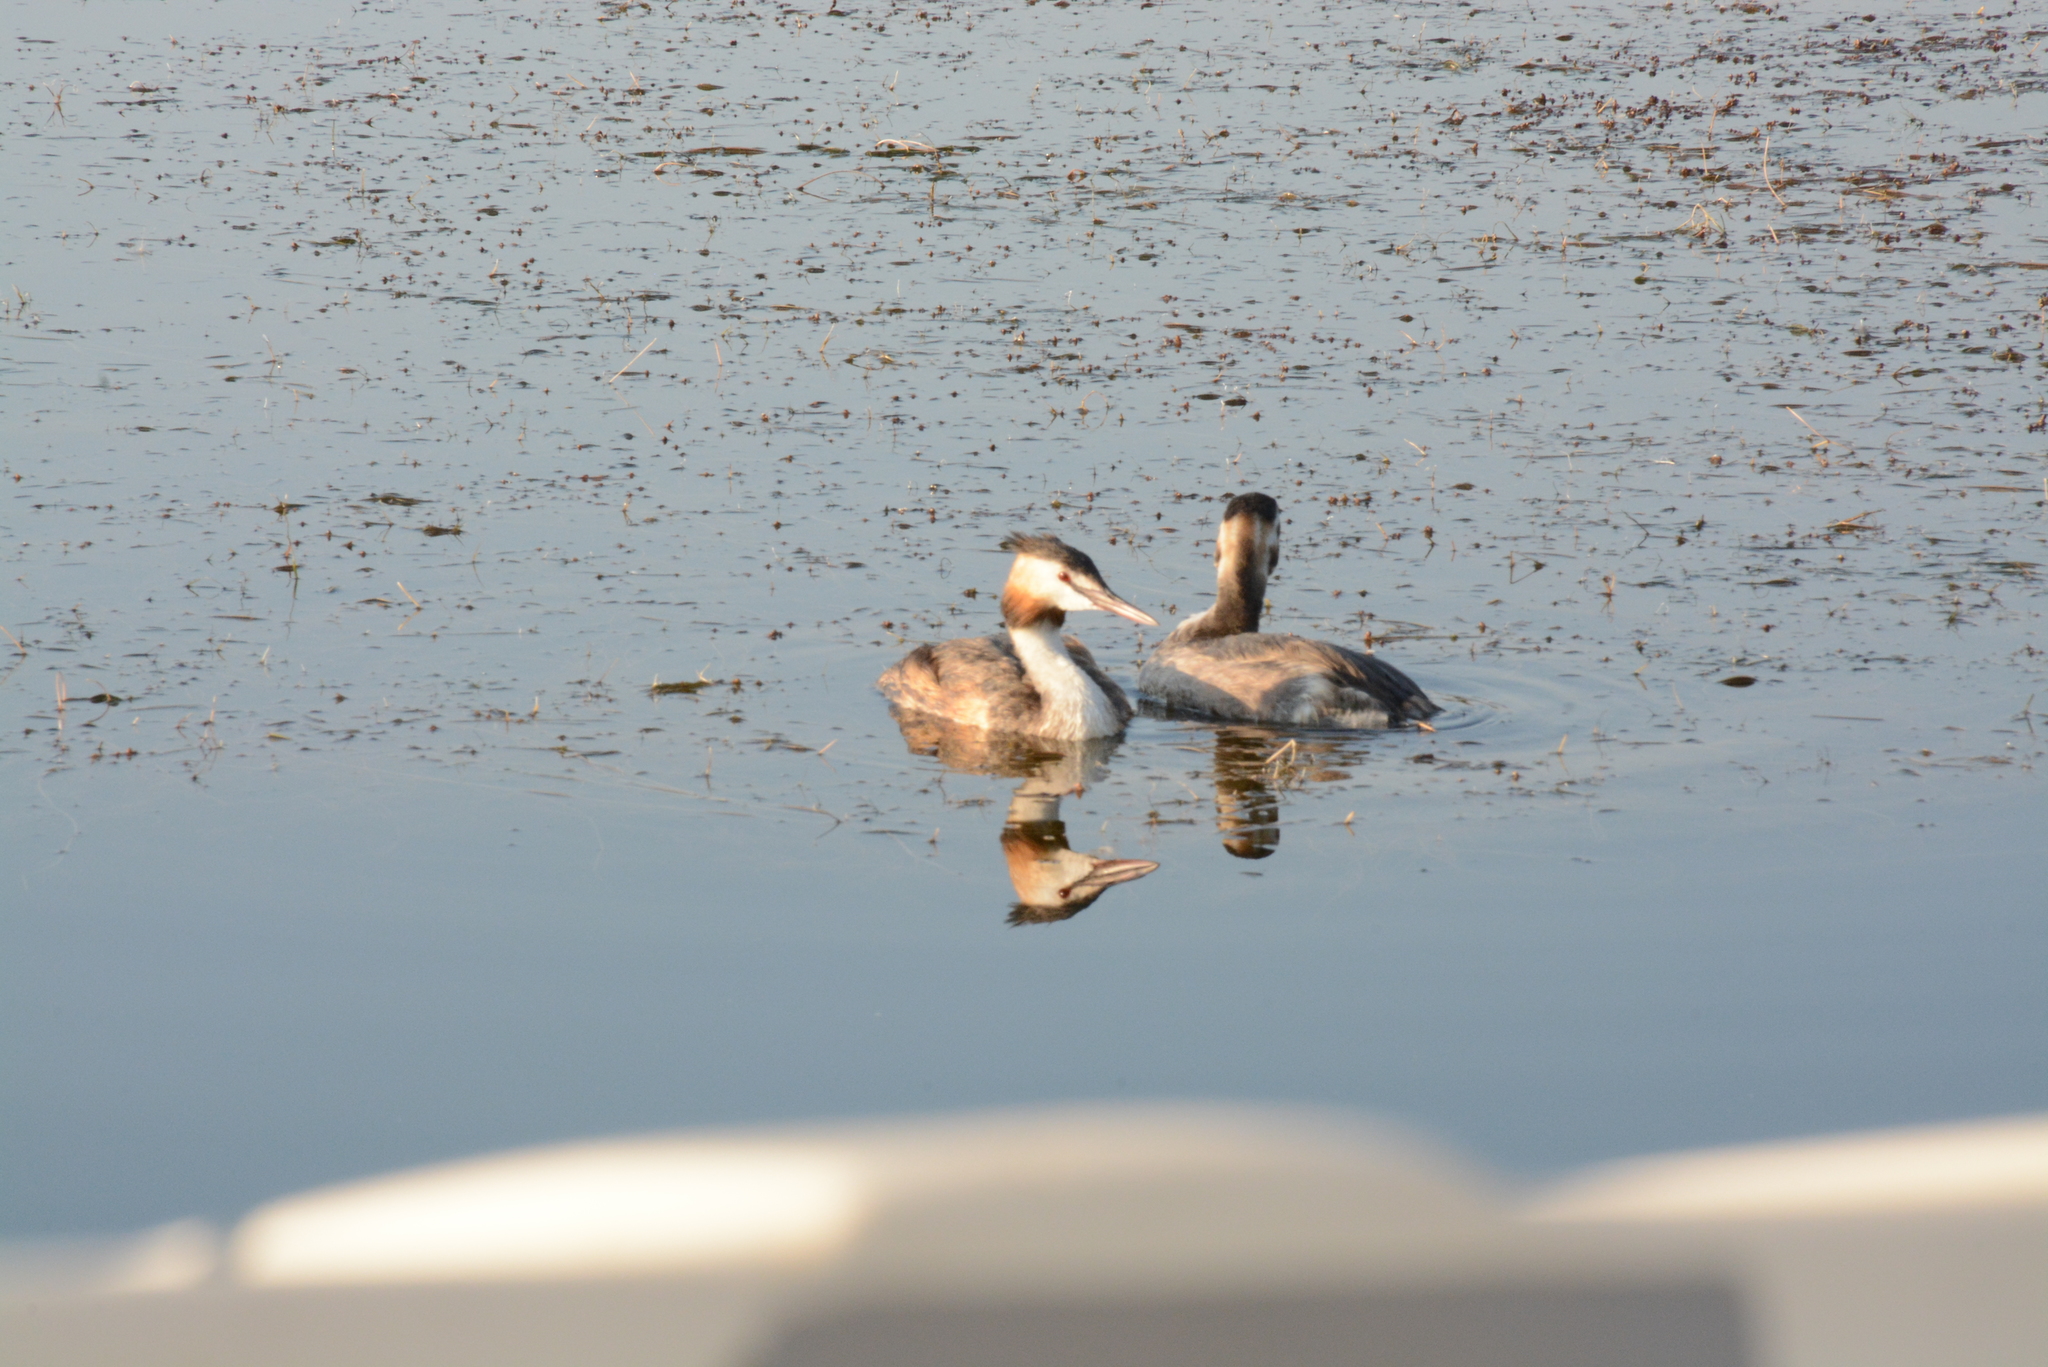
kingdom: Animalia
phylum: Chordata
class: Aves
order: Podicipediformes
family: Podicipedidae
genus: Podiceps
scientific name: Podiceps cristatus
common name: Great crested grebe
